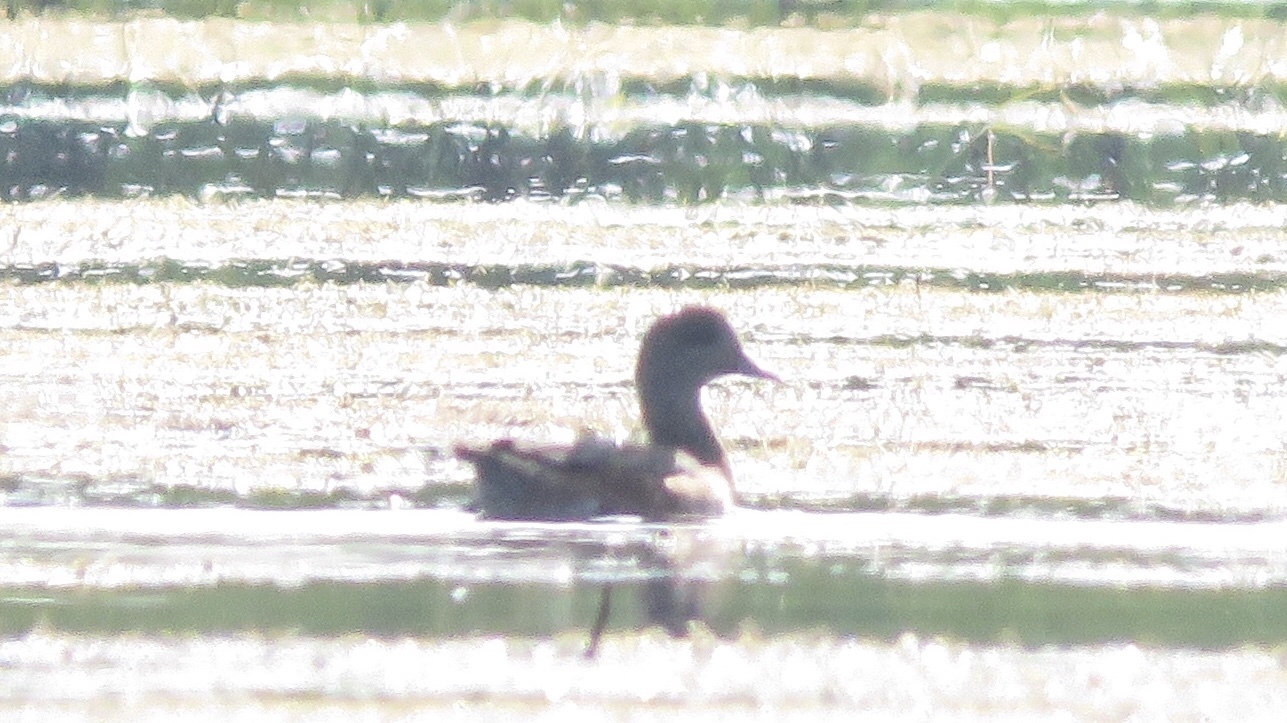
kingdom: Animalia
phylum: Chordata
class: Aves
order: Anseriformes
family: Anatidae
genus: Mareca
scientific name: Mareca americana
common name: American wigeon
